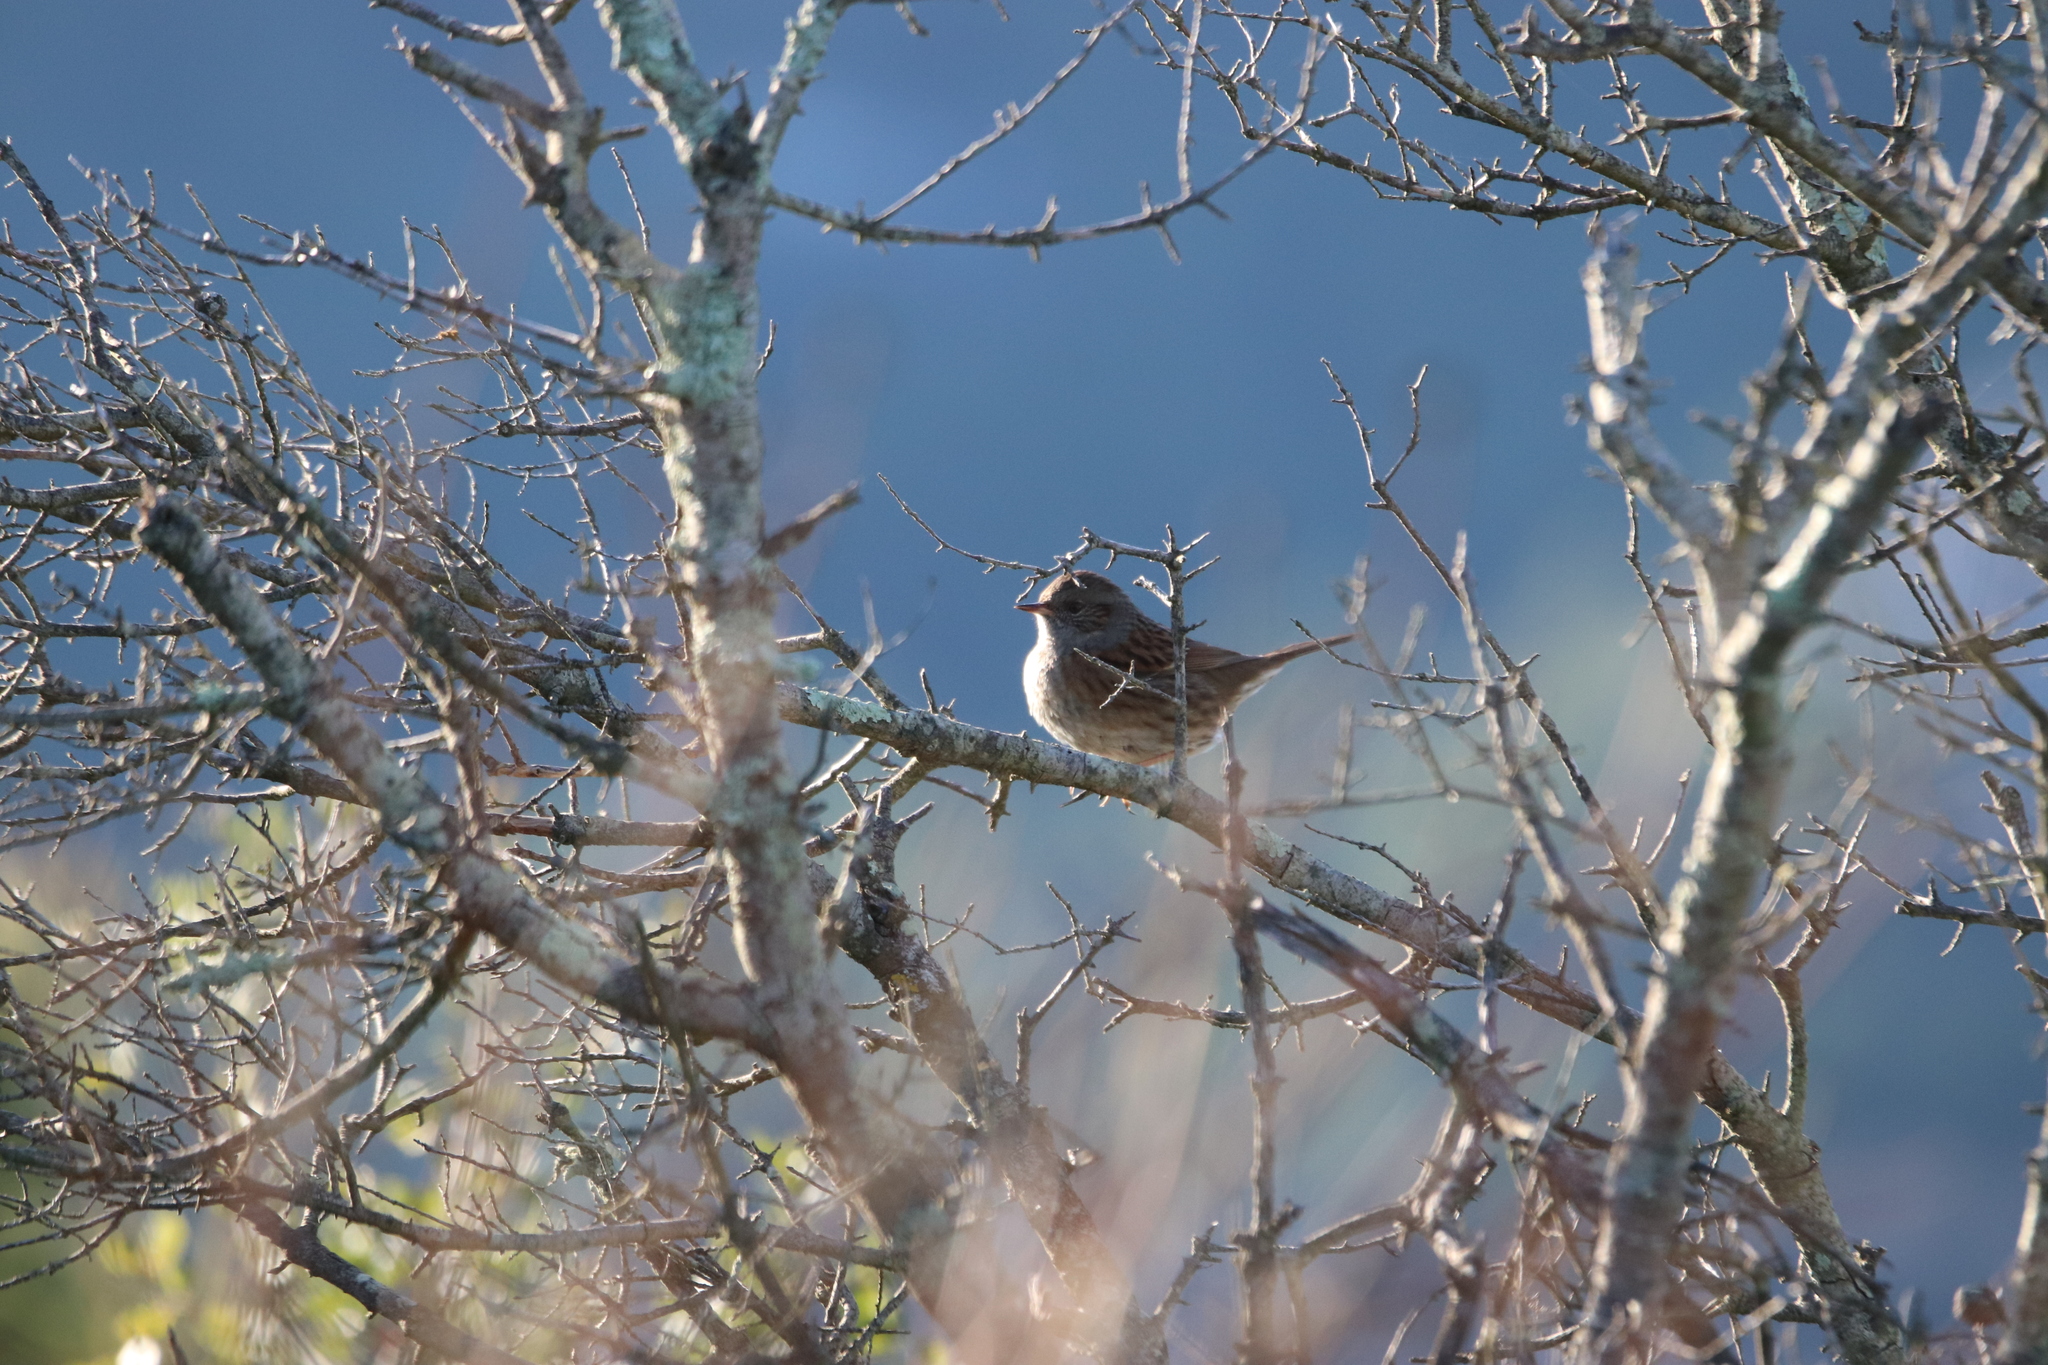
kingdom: Animalia
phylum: Chordata
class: Aves
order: Passeriformes
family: Prunellidae
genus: Prunella
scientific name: Prunella modularis
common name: Dunnock
